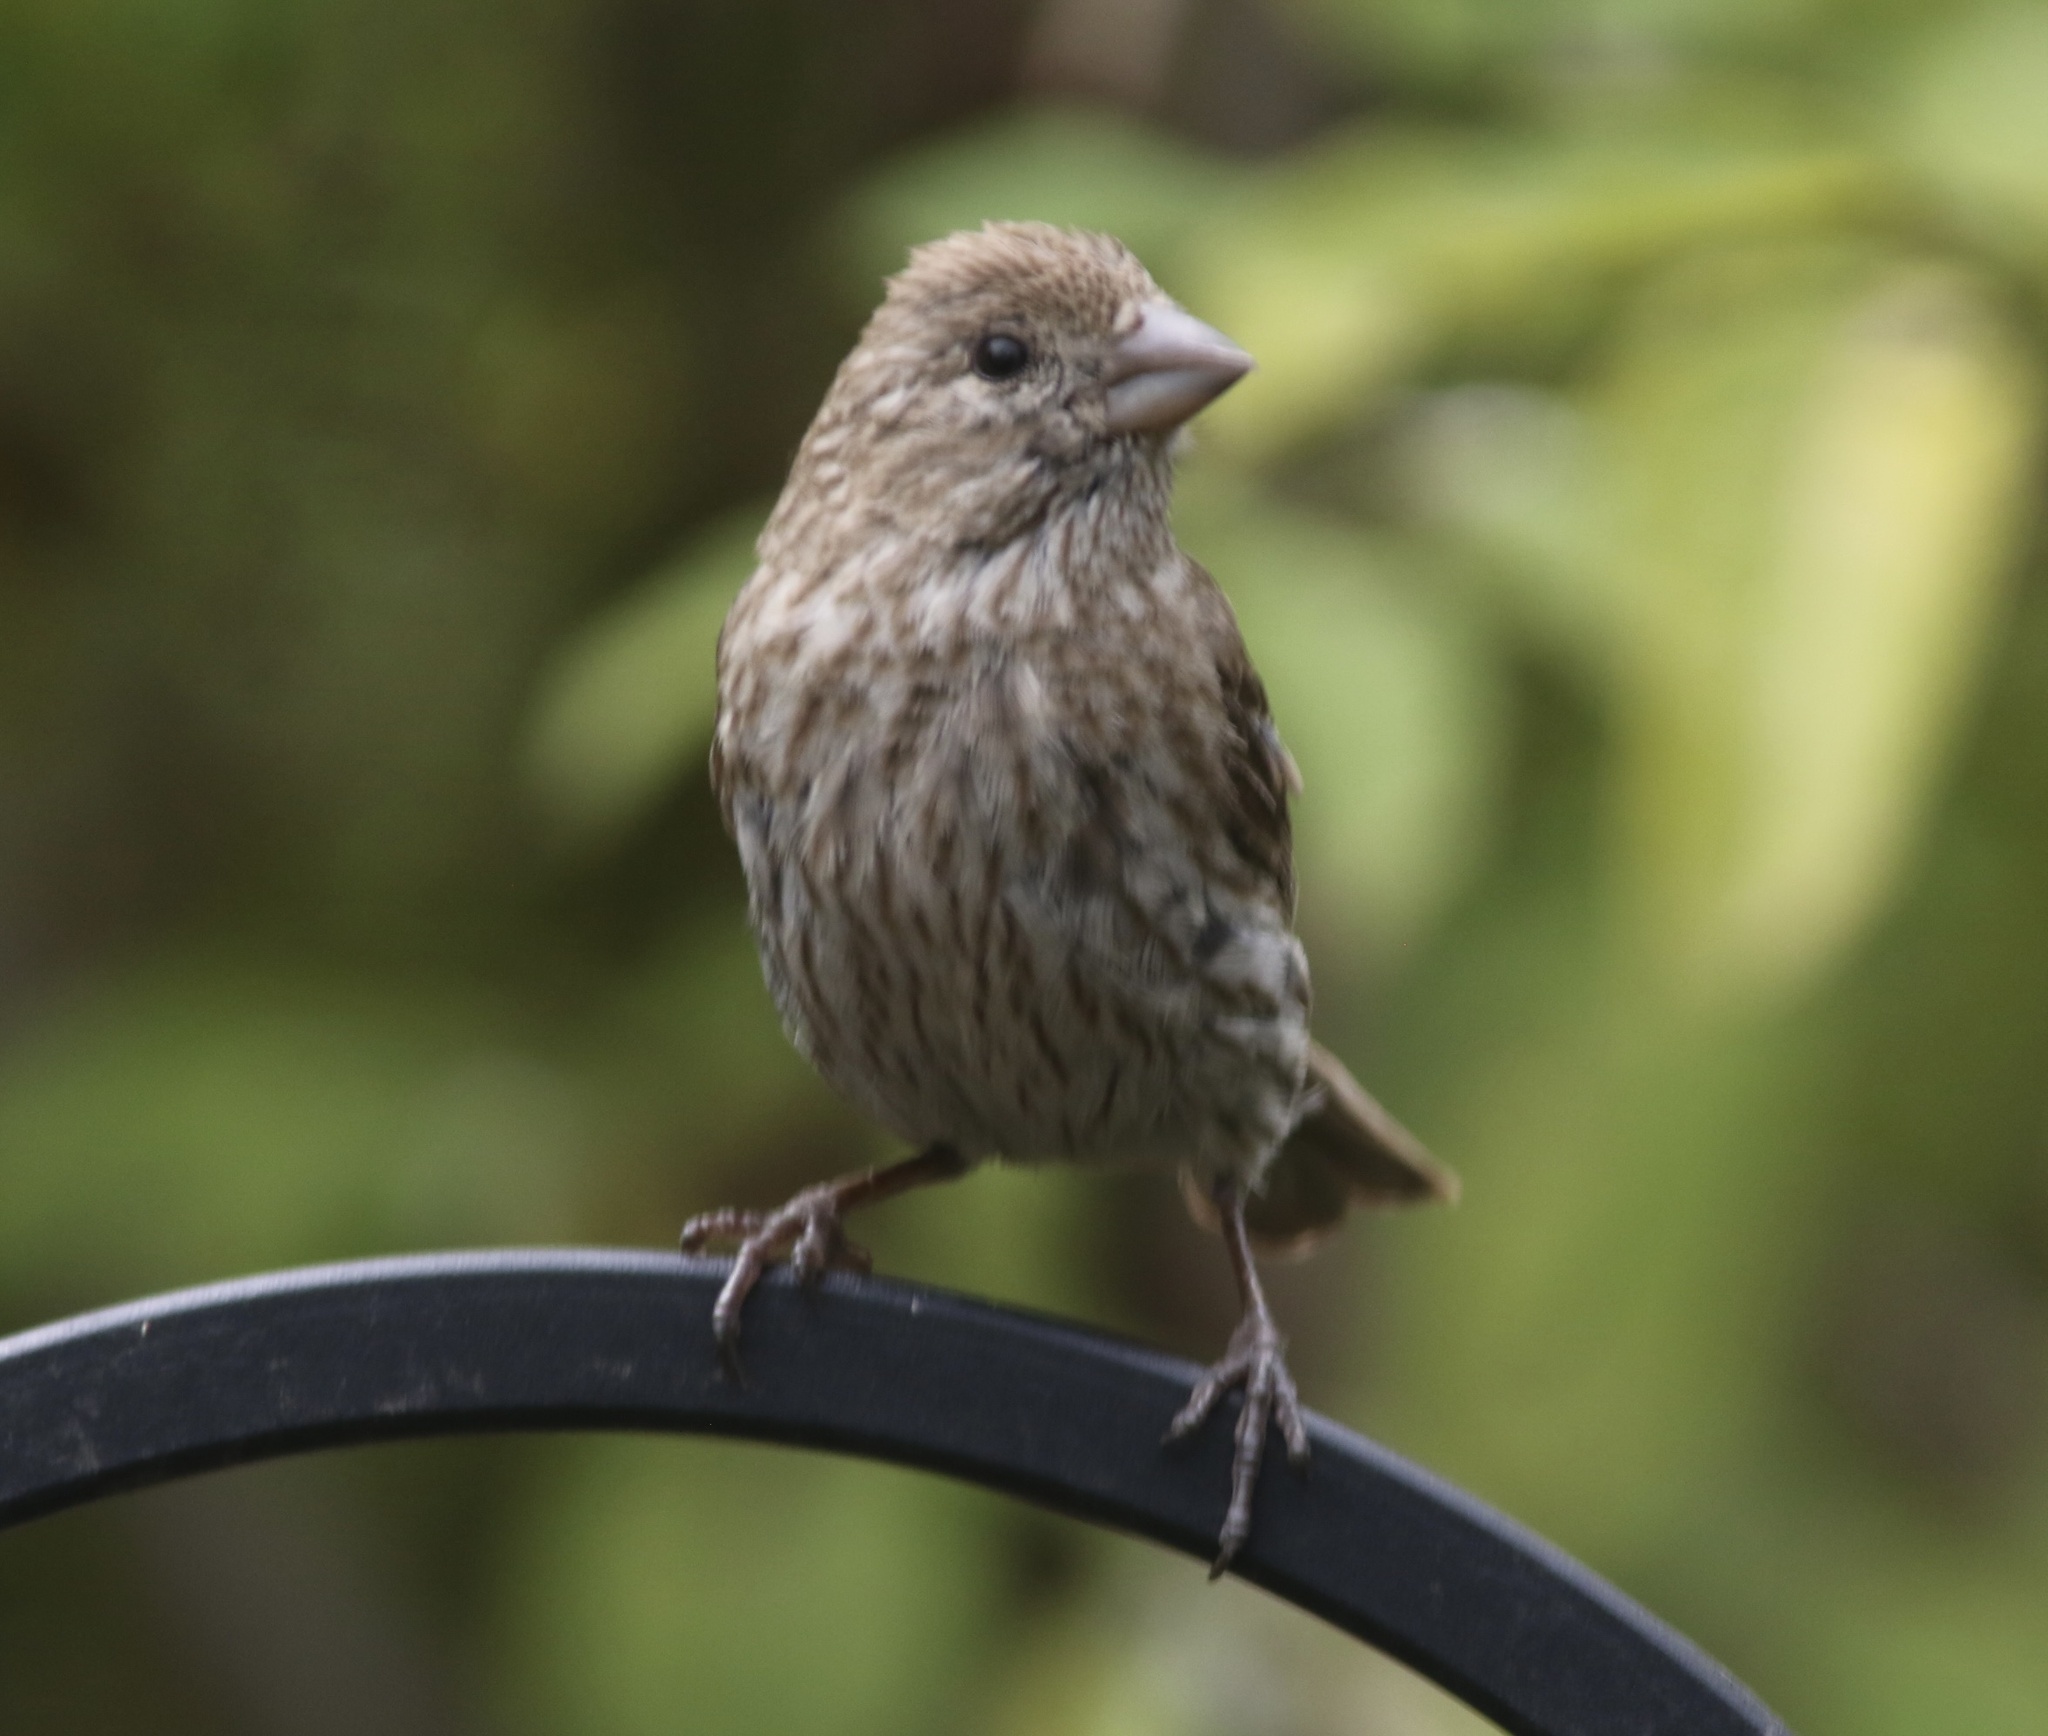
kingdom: Animalia
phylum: Chordata
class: Aves
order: Passeriformes
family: Fringillidae
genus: Haemorhous
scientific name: Haemorhous mexicanus
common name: House finch
